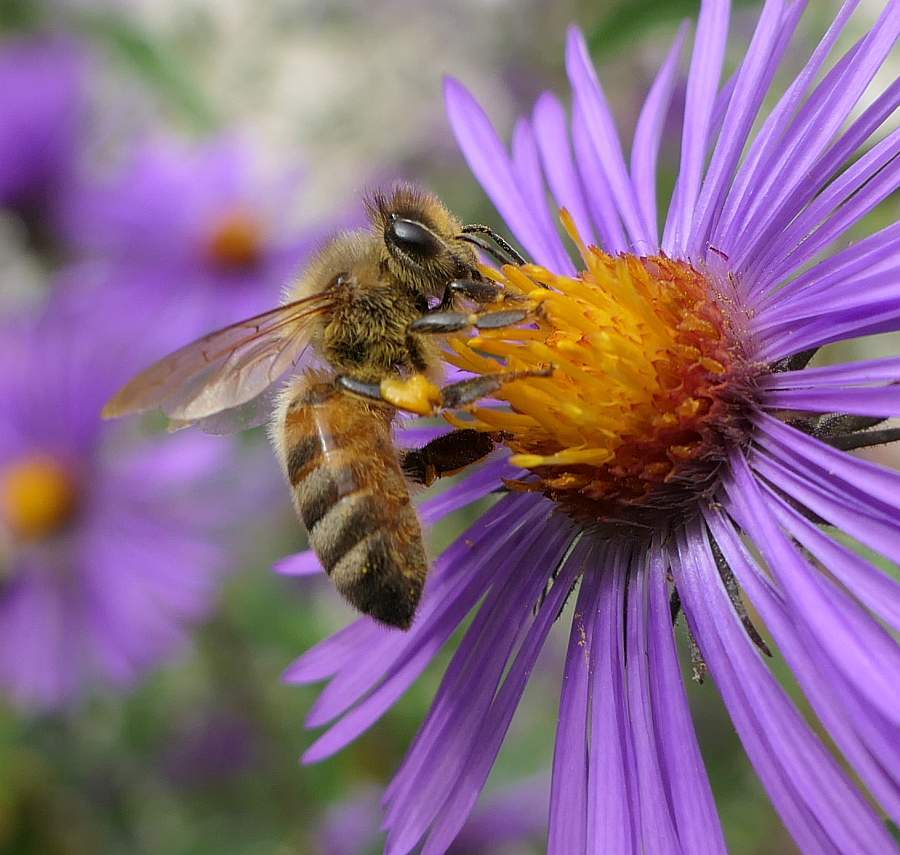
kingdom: Animalia
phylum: Arthropoda
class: Insecta
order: Hymenoptera
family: Apidae
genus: Apis
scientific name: Apis mellifera
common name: Honey bee
